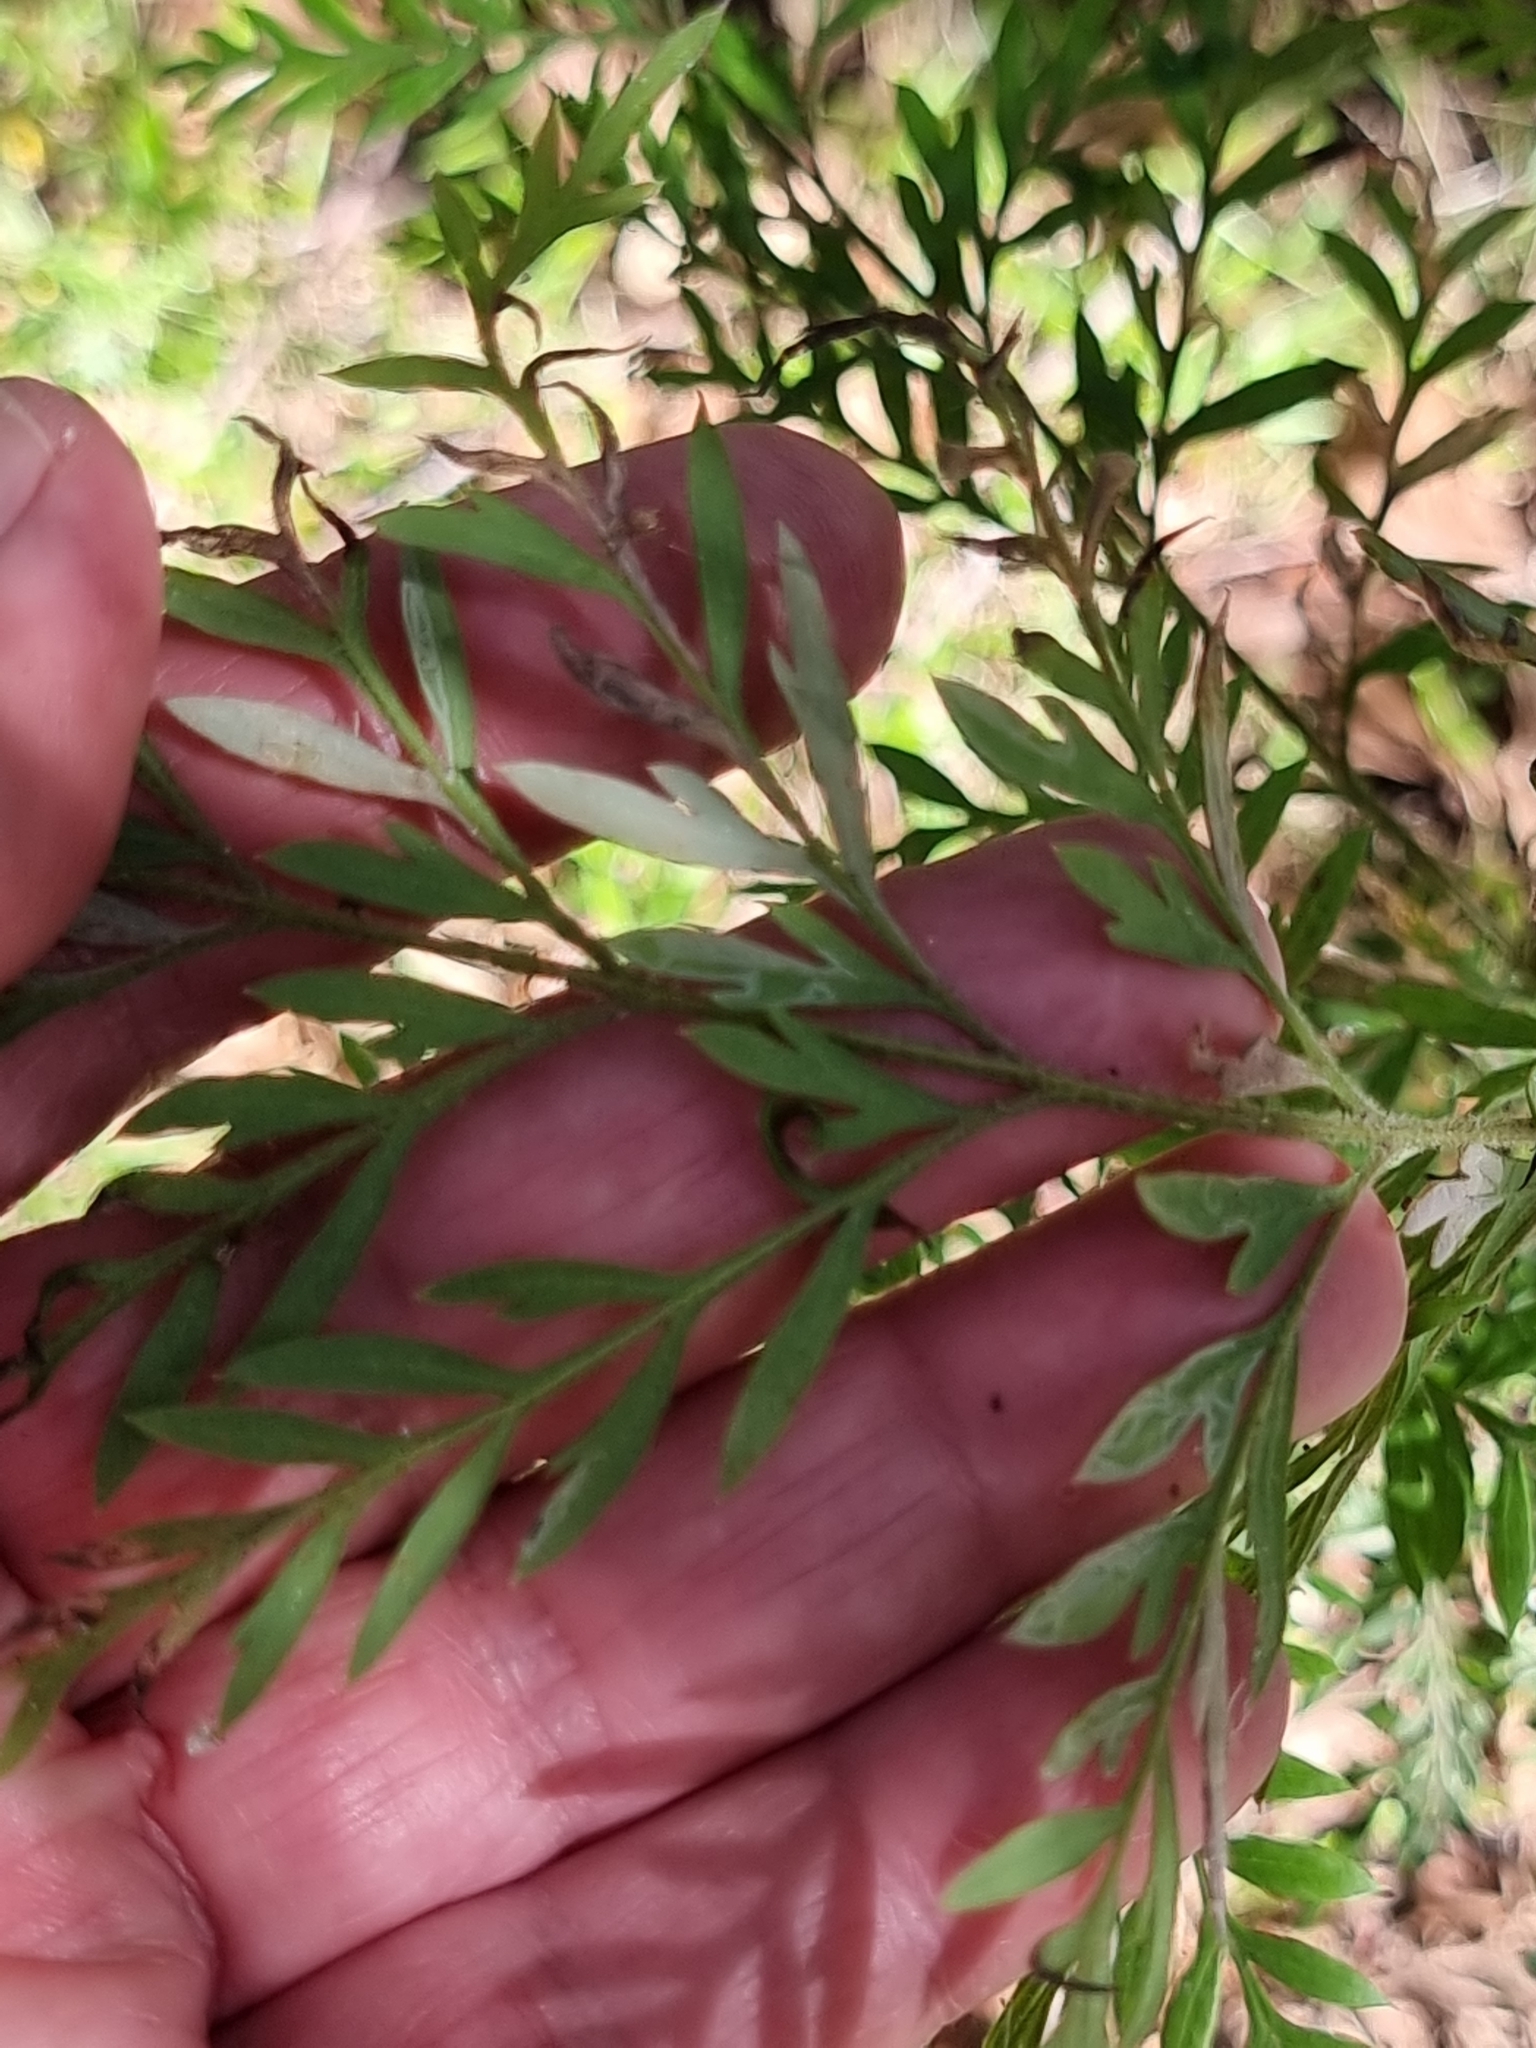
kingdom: Plantae
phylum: Tracheophyta
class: Magnoliopsida
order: Proteales
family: Proteaceae
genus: Grevillea
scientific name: Grevillea robusta
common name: Silkoak
